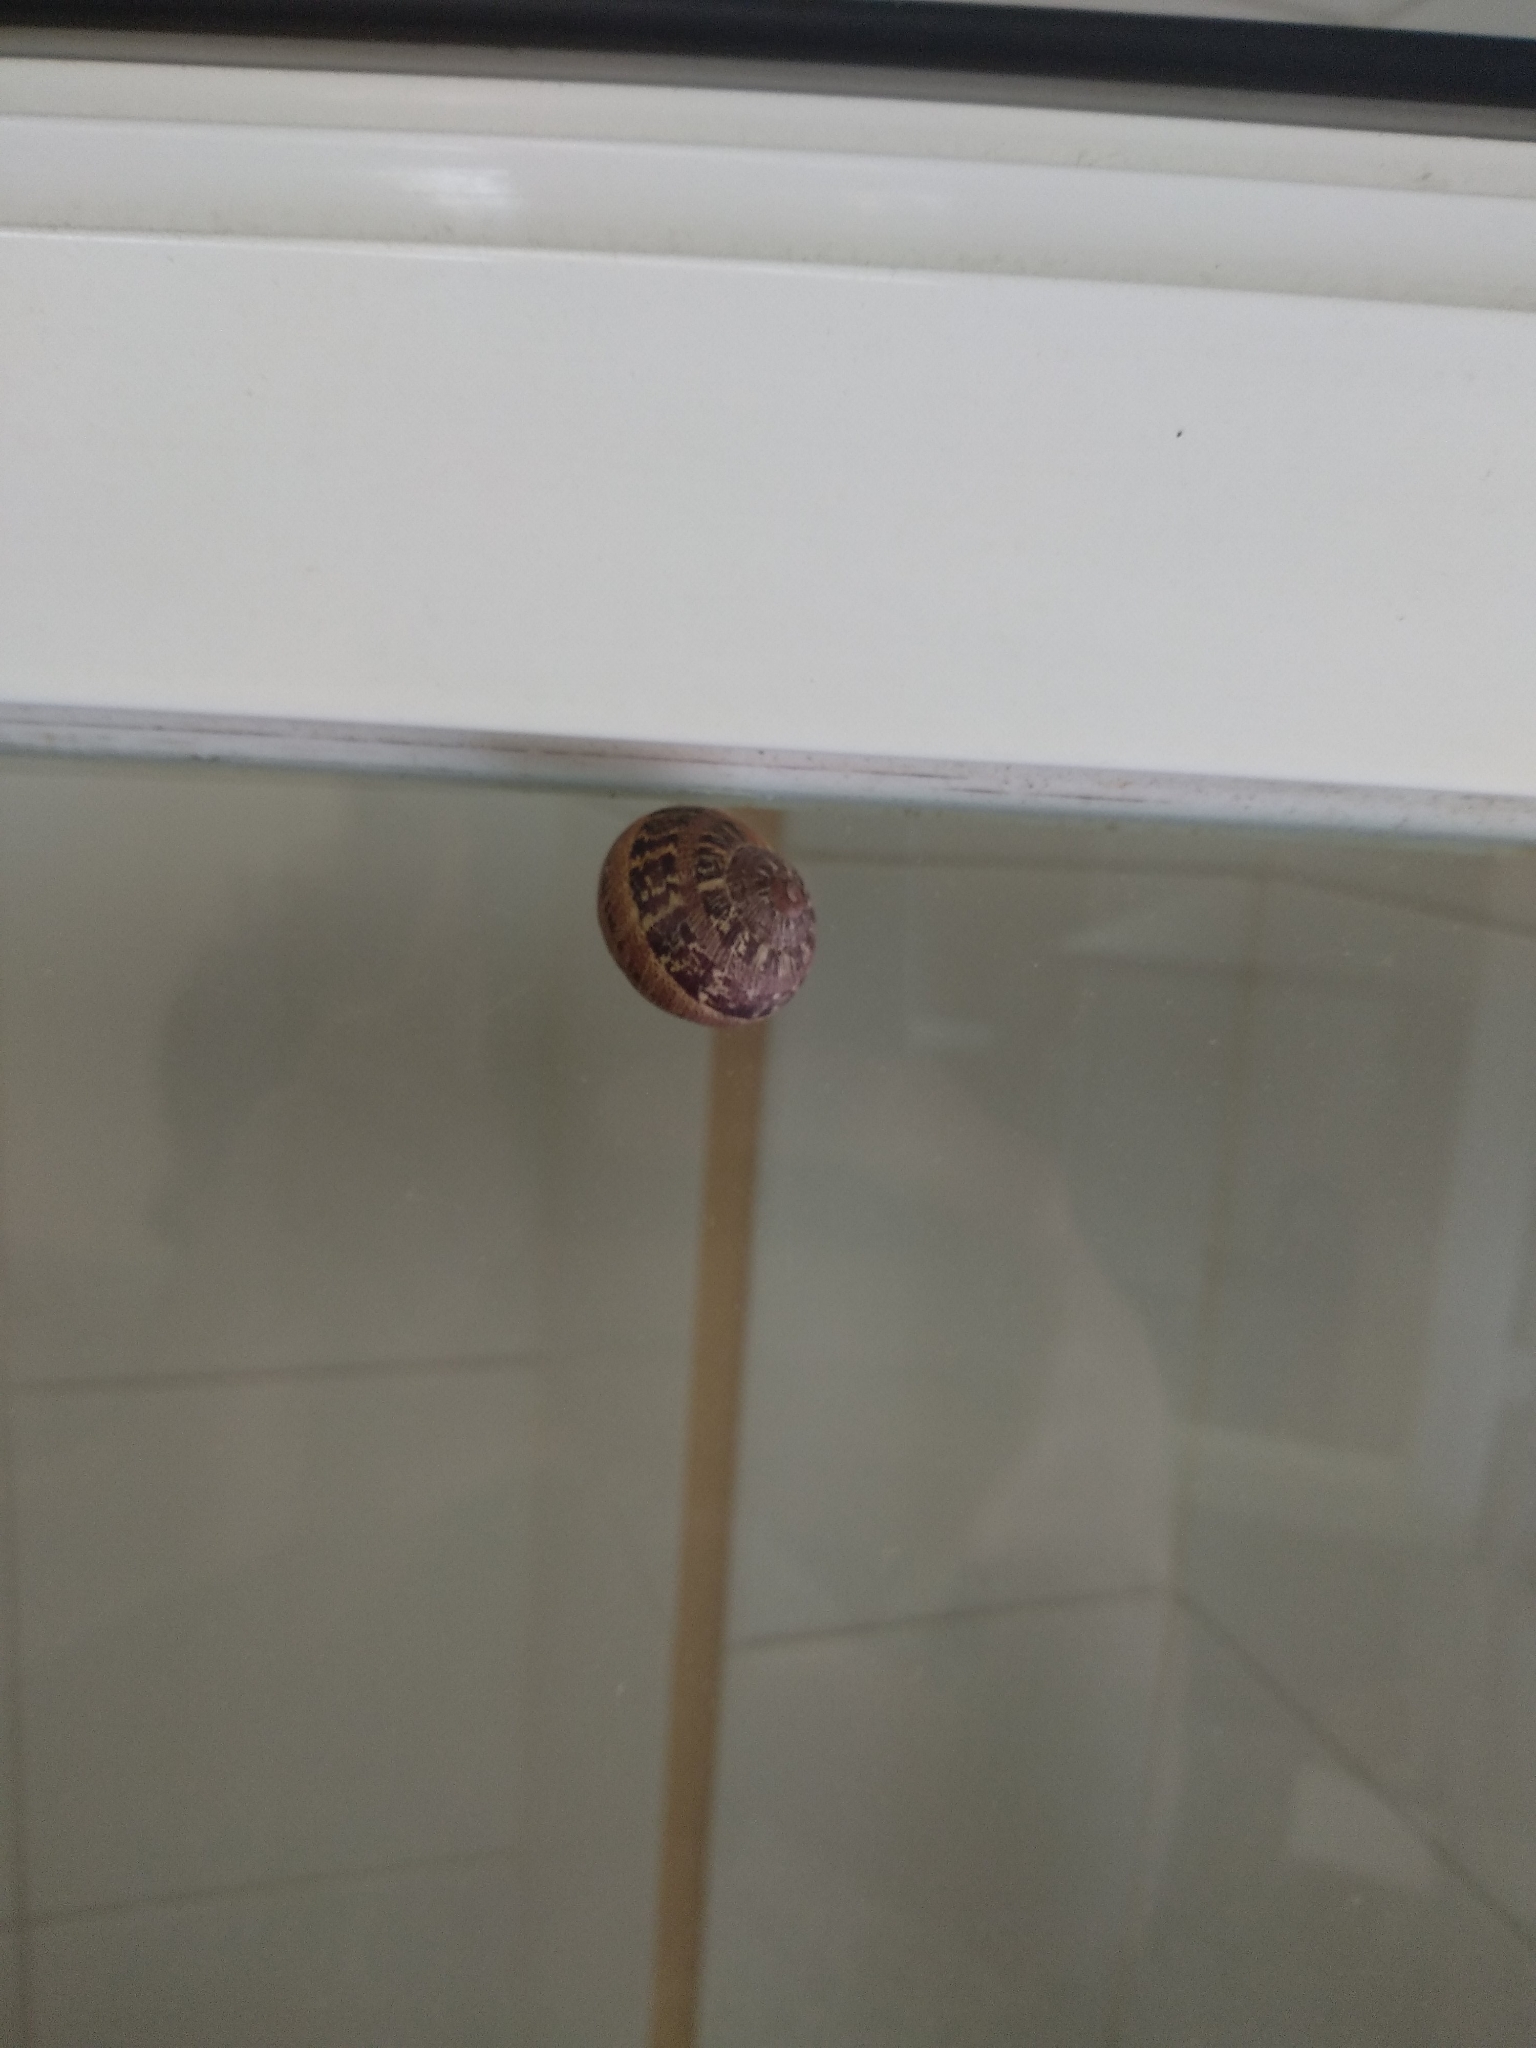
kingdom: Animalia
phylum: Mollusca
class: Gastropoda
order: Stylommatophora
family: Helicidae
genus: Cornu
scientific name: Cornu aspersum
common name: Brown garden snail
